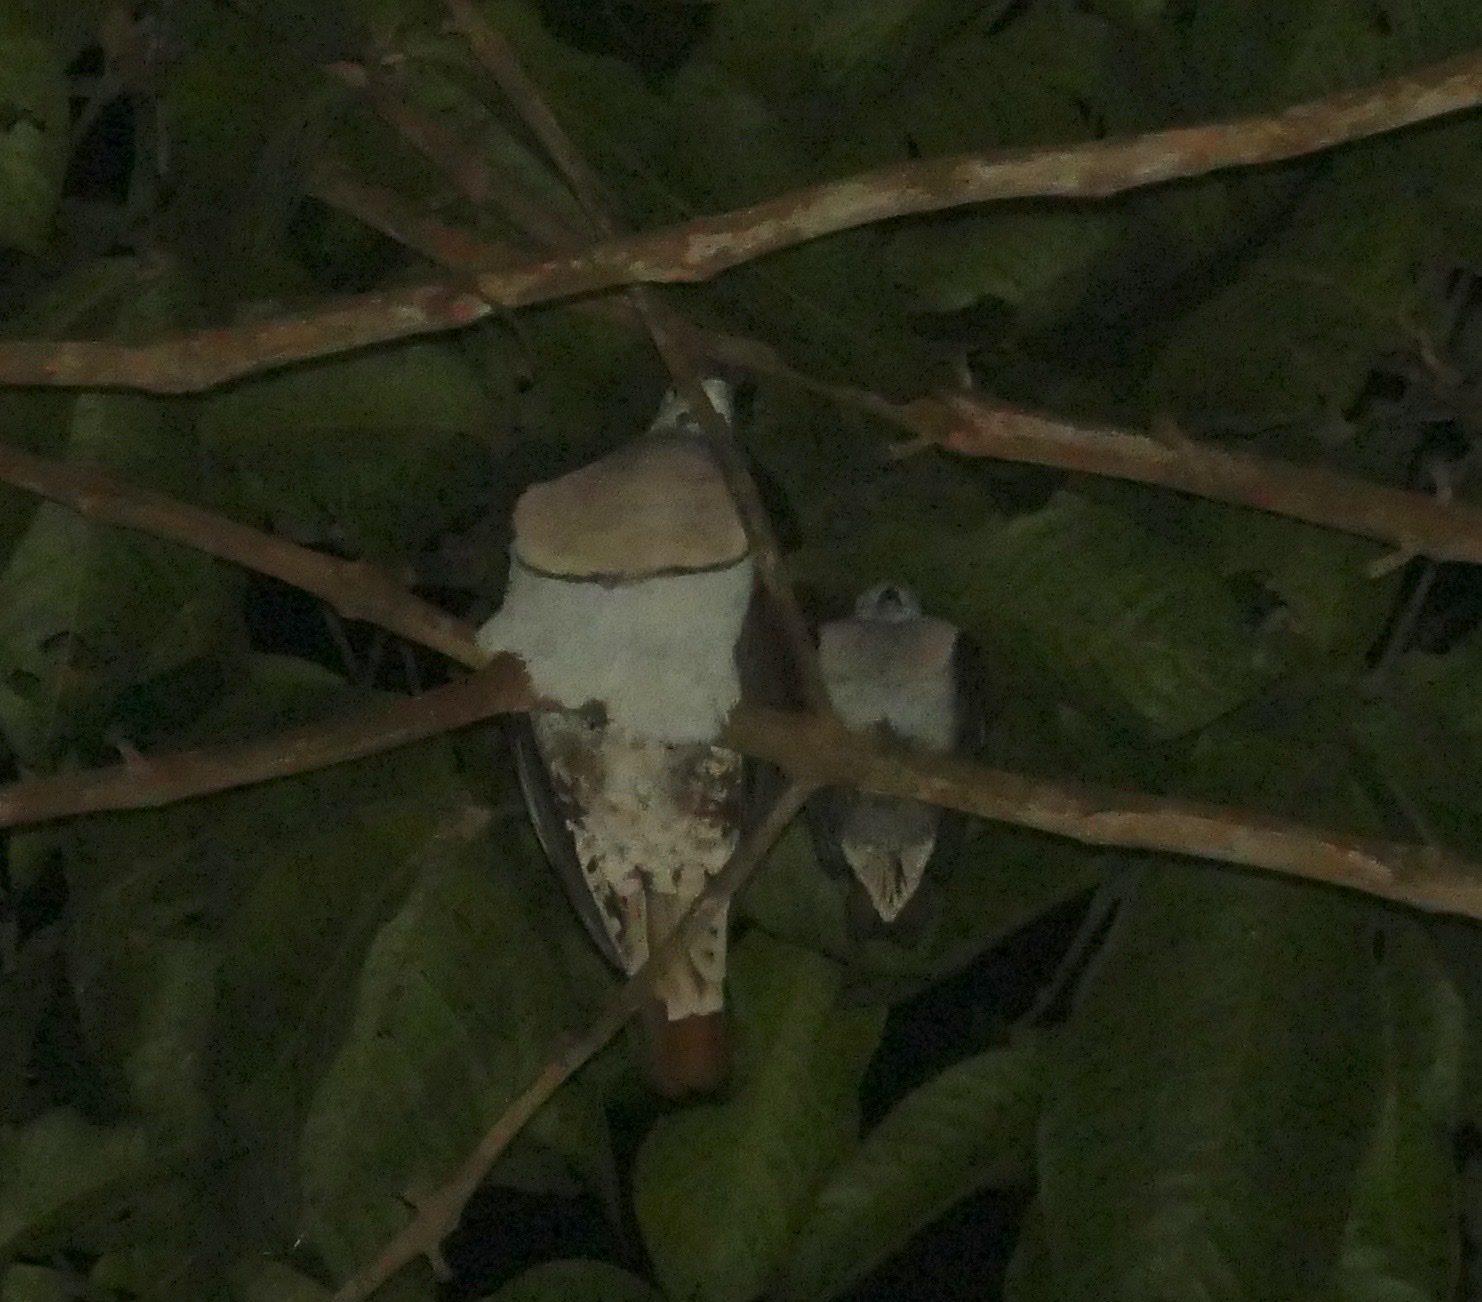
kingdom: Animalia
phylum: Chordata
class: Aves
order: Columbiformes
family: Columbidae
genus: Ducula
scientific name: Ducula zoeae
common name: Zoe's imperial pigeon
